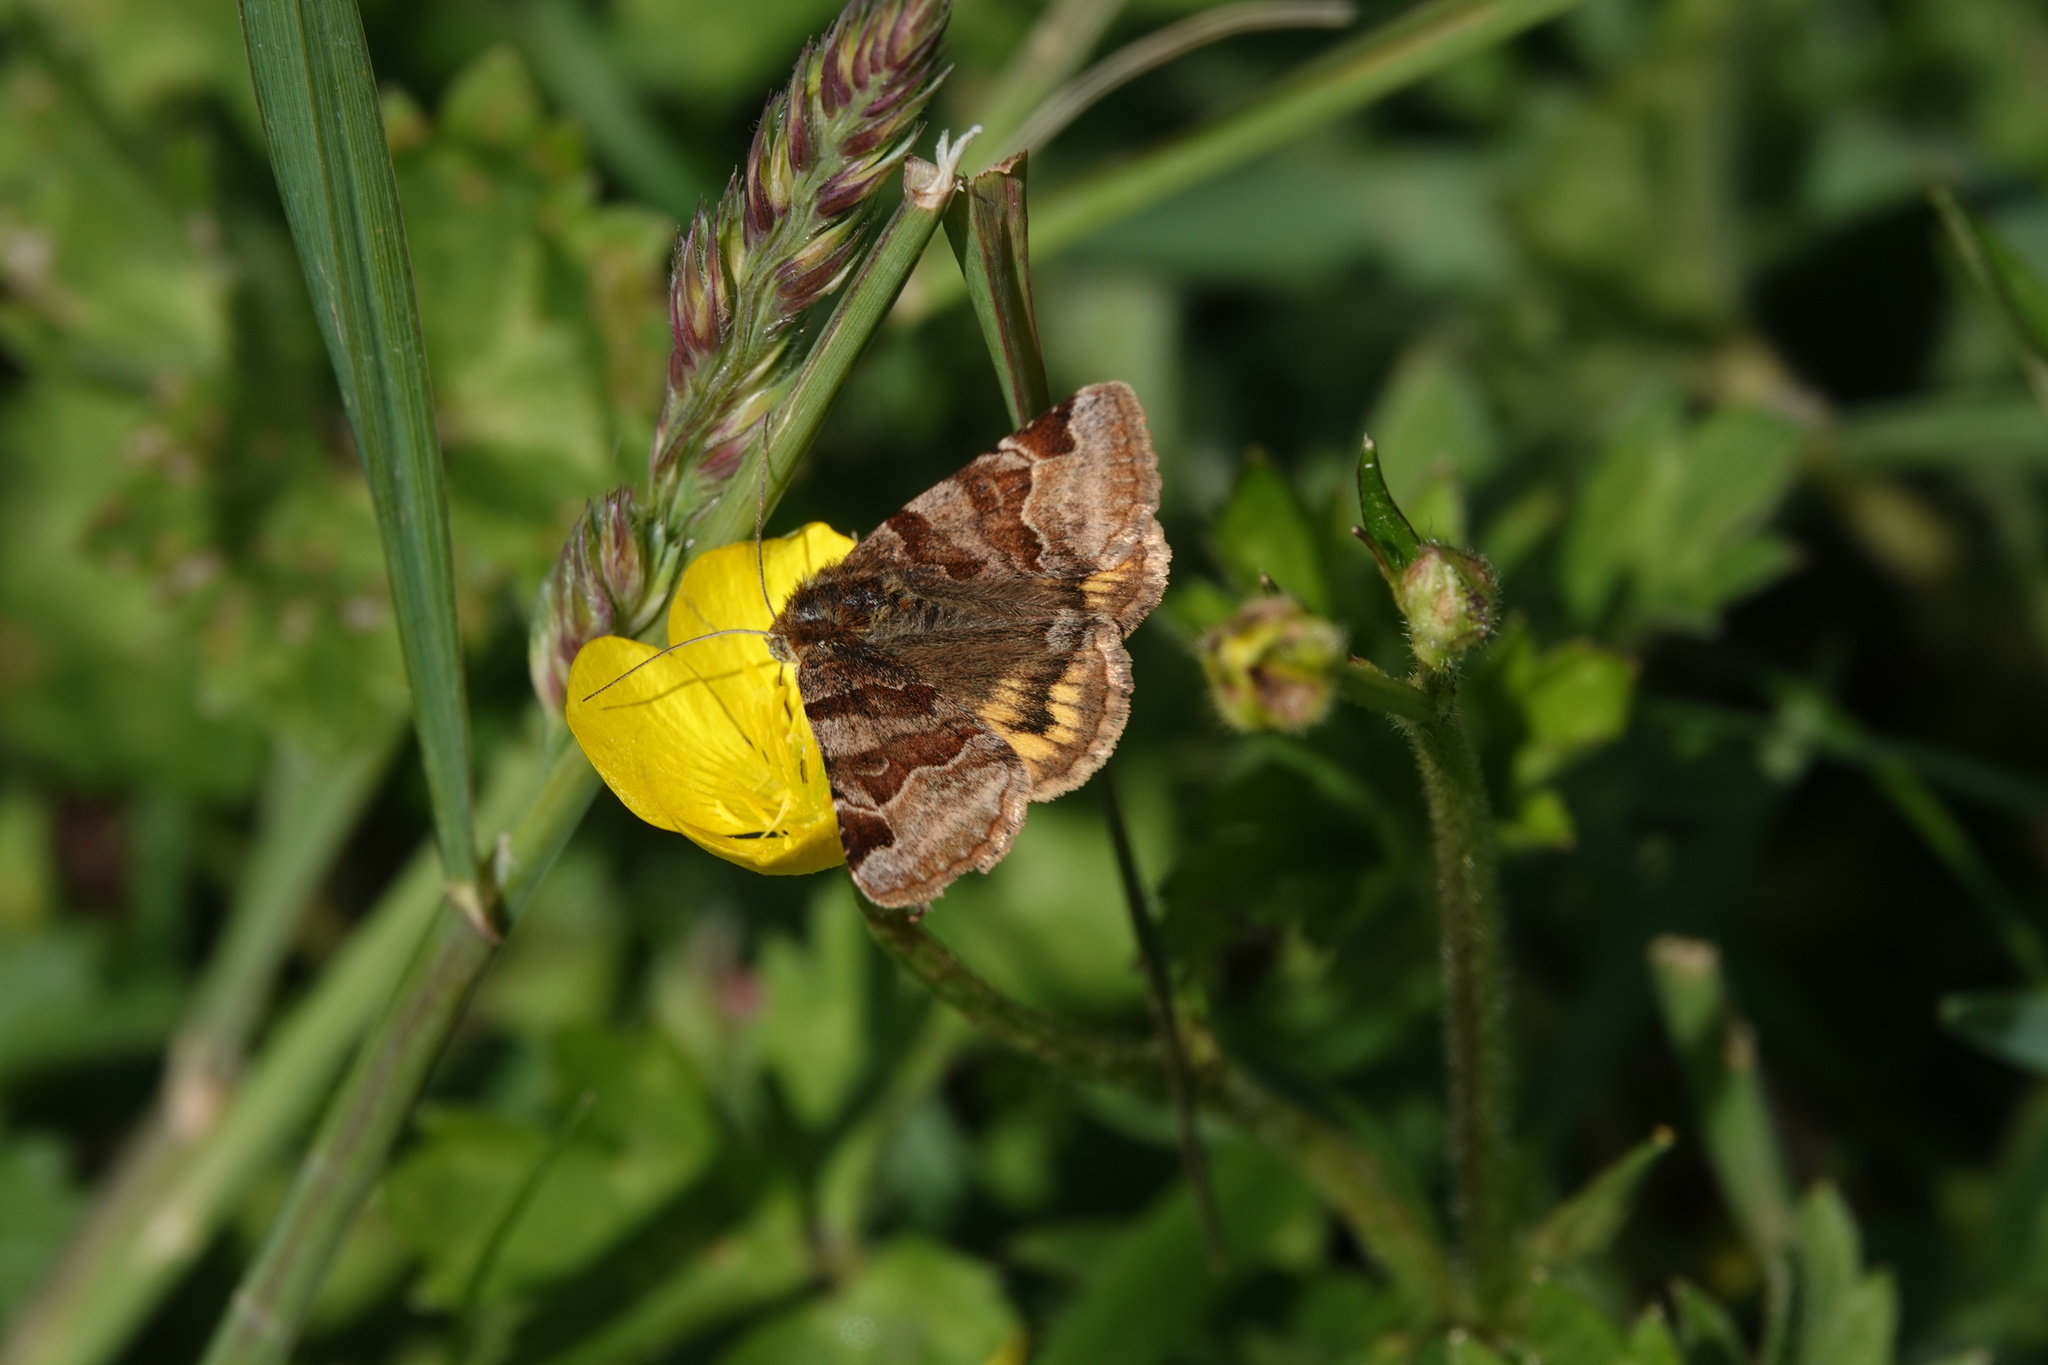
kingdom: Animalia
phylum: Arthropoda
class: Insecta
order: Lepidoptera
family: Erebidae
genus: Euclidia
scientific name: Euclidia glyphica
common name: Burnet companion
